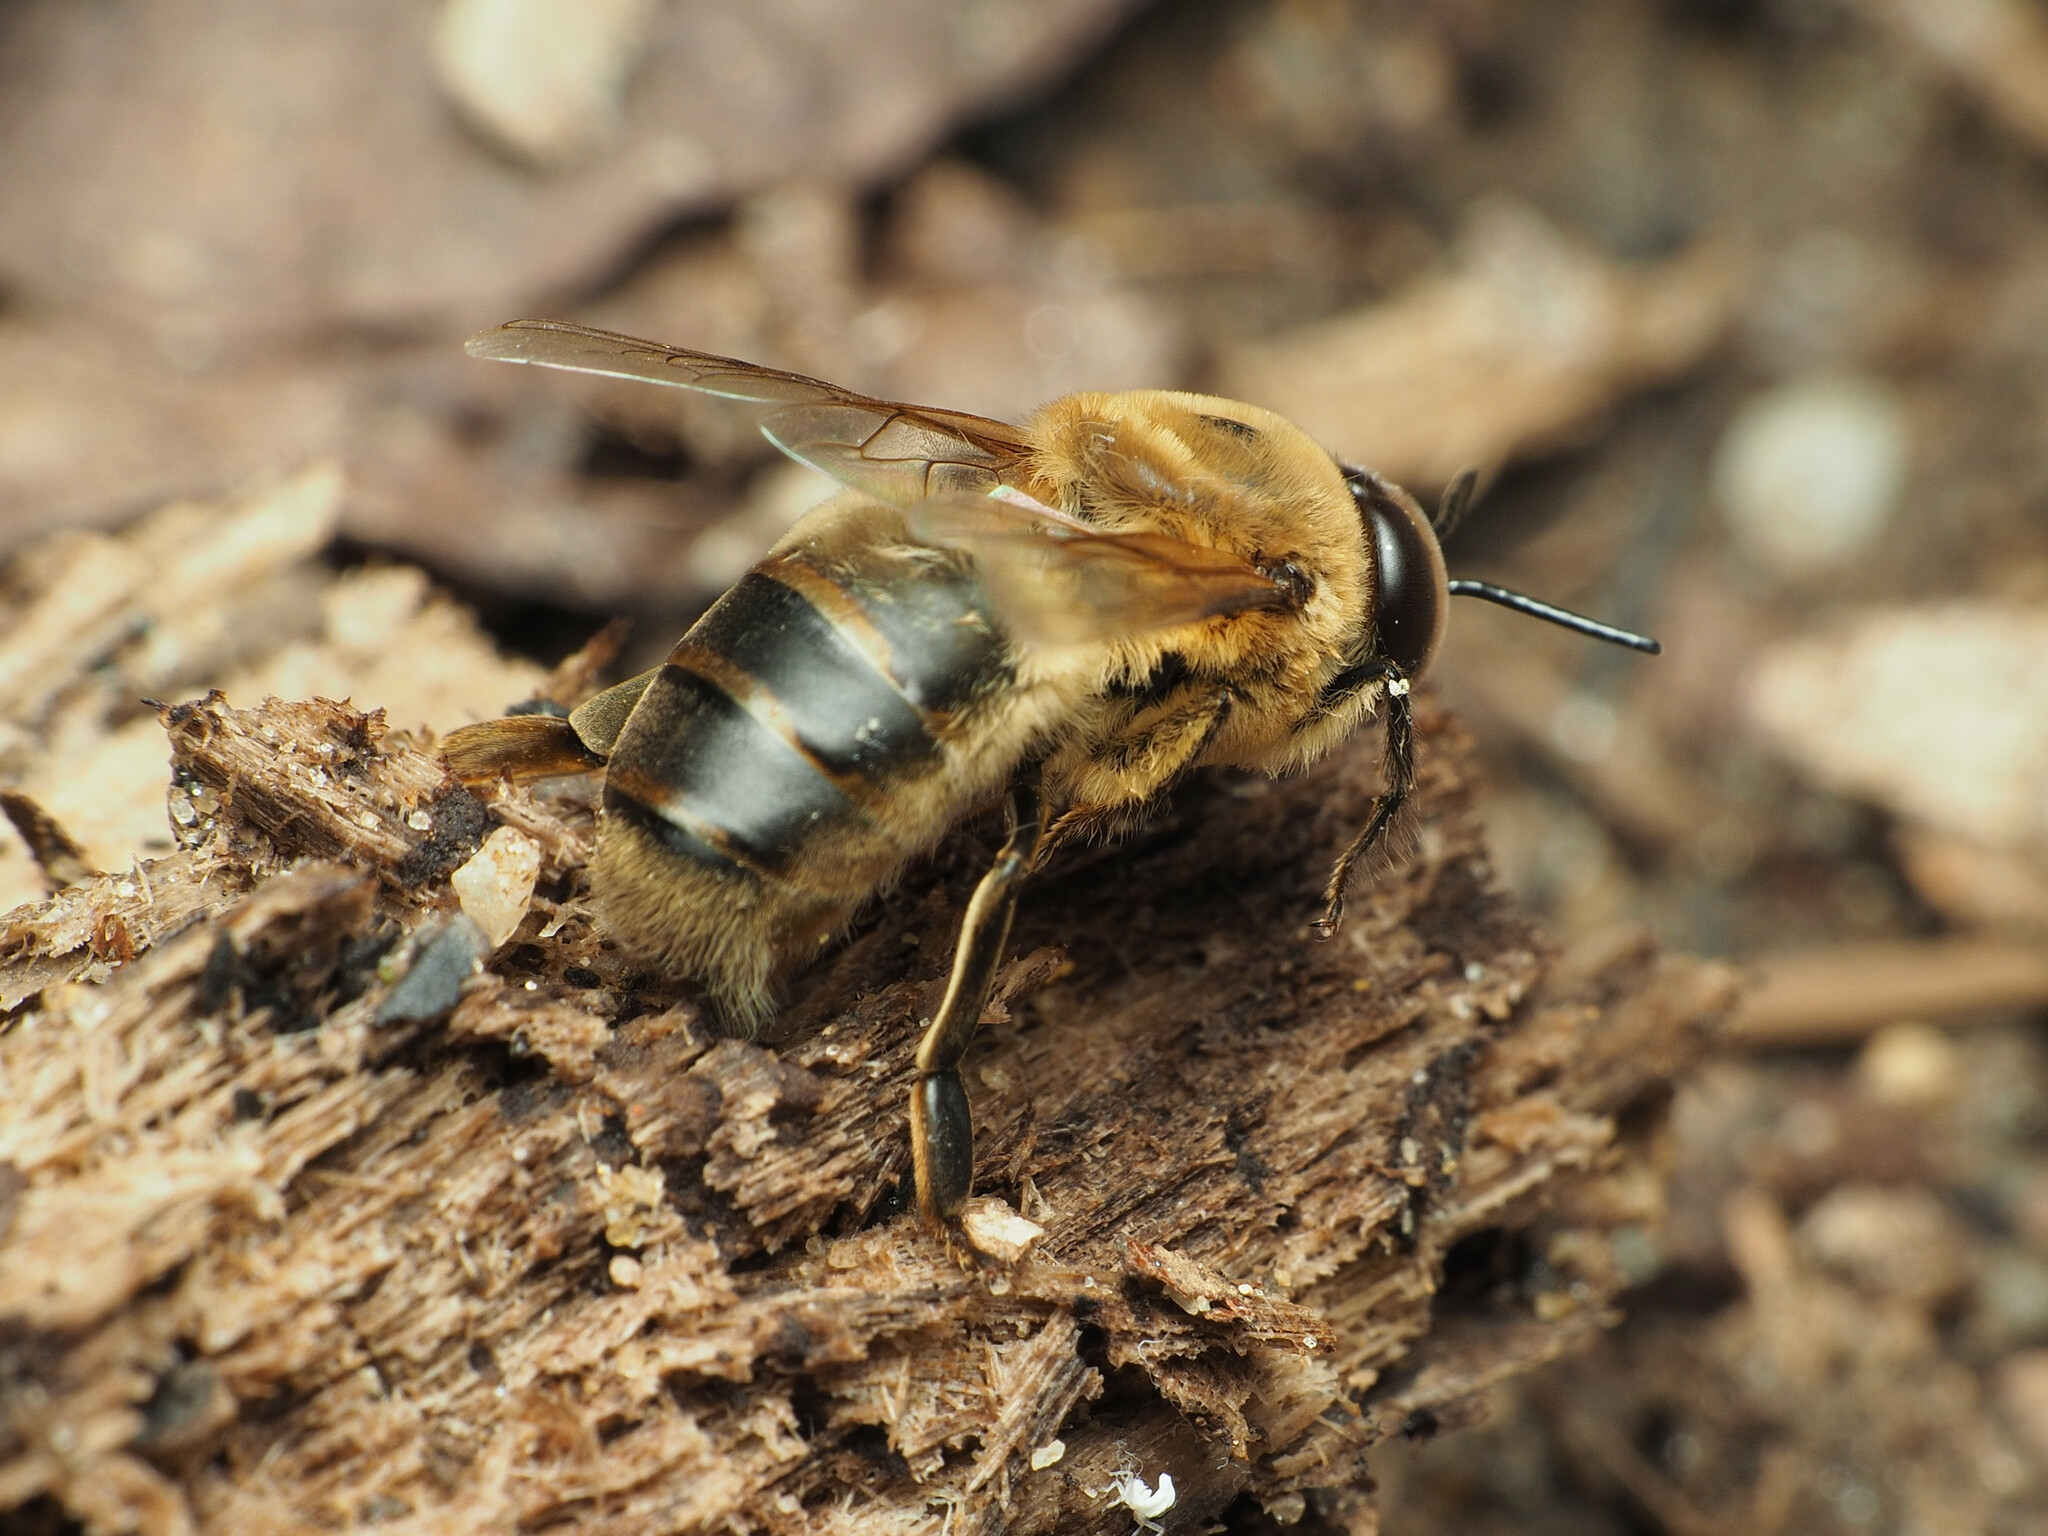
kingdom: Animalia
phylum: Arthropoda
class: Insecta
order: Hymenoptera
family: Apidae
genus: Apis
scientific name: Apis mellifera
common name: Honey bee
